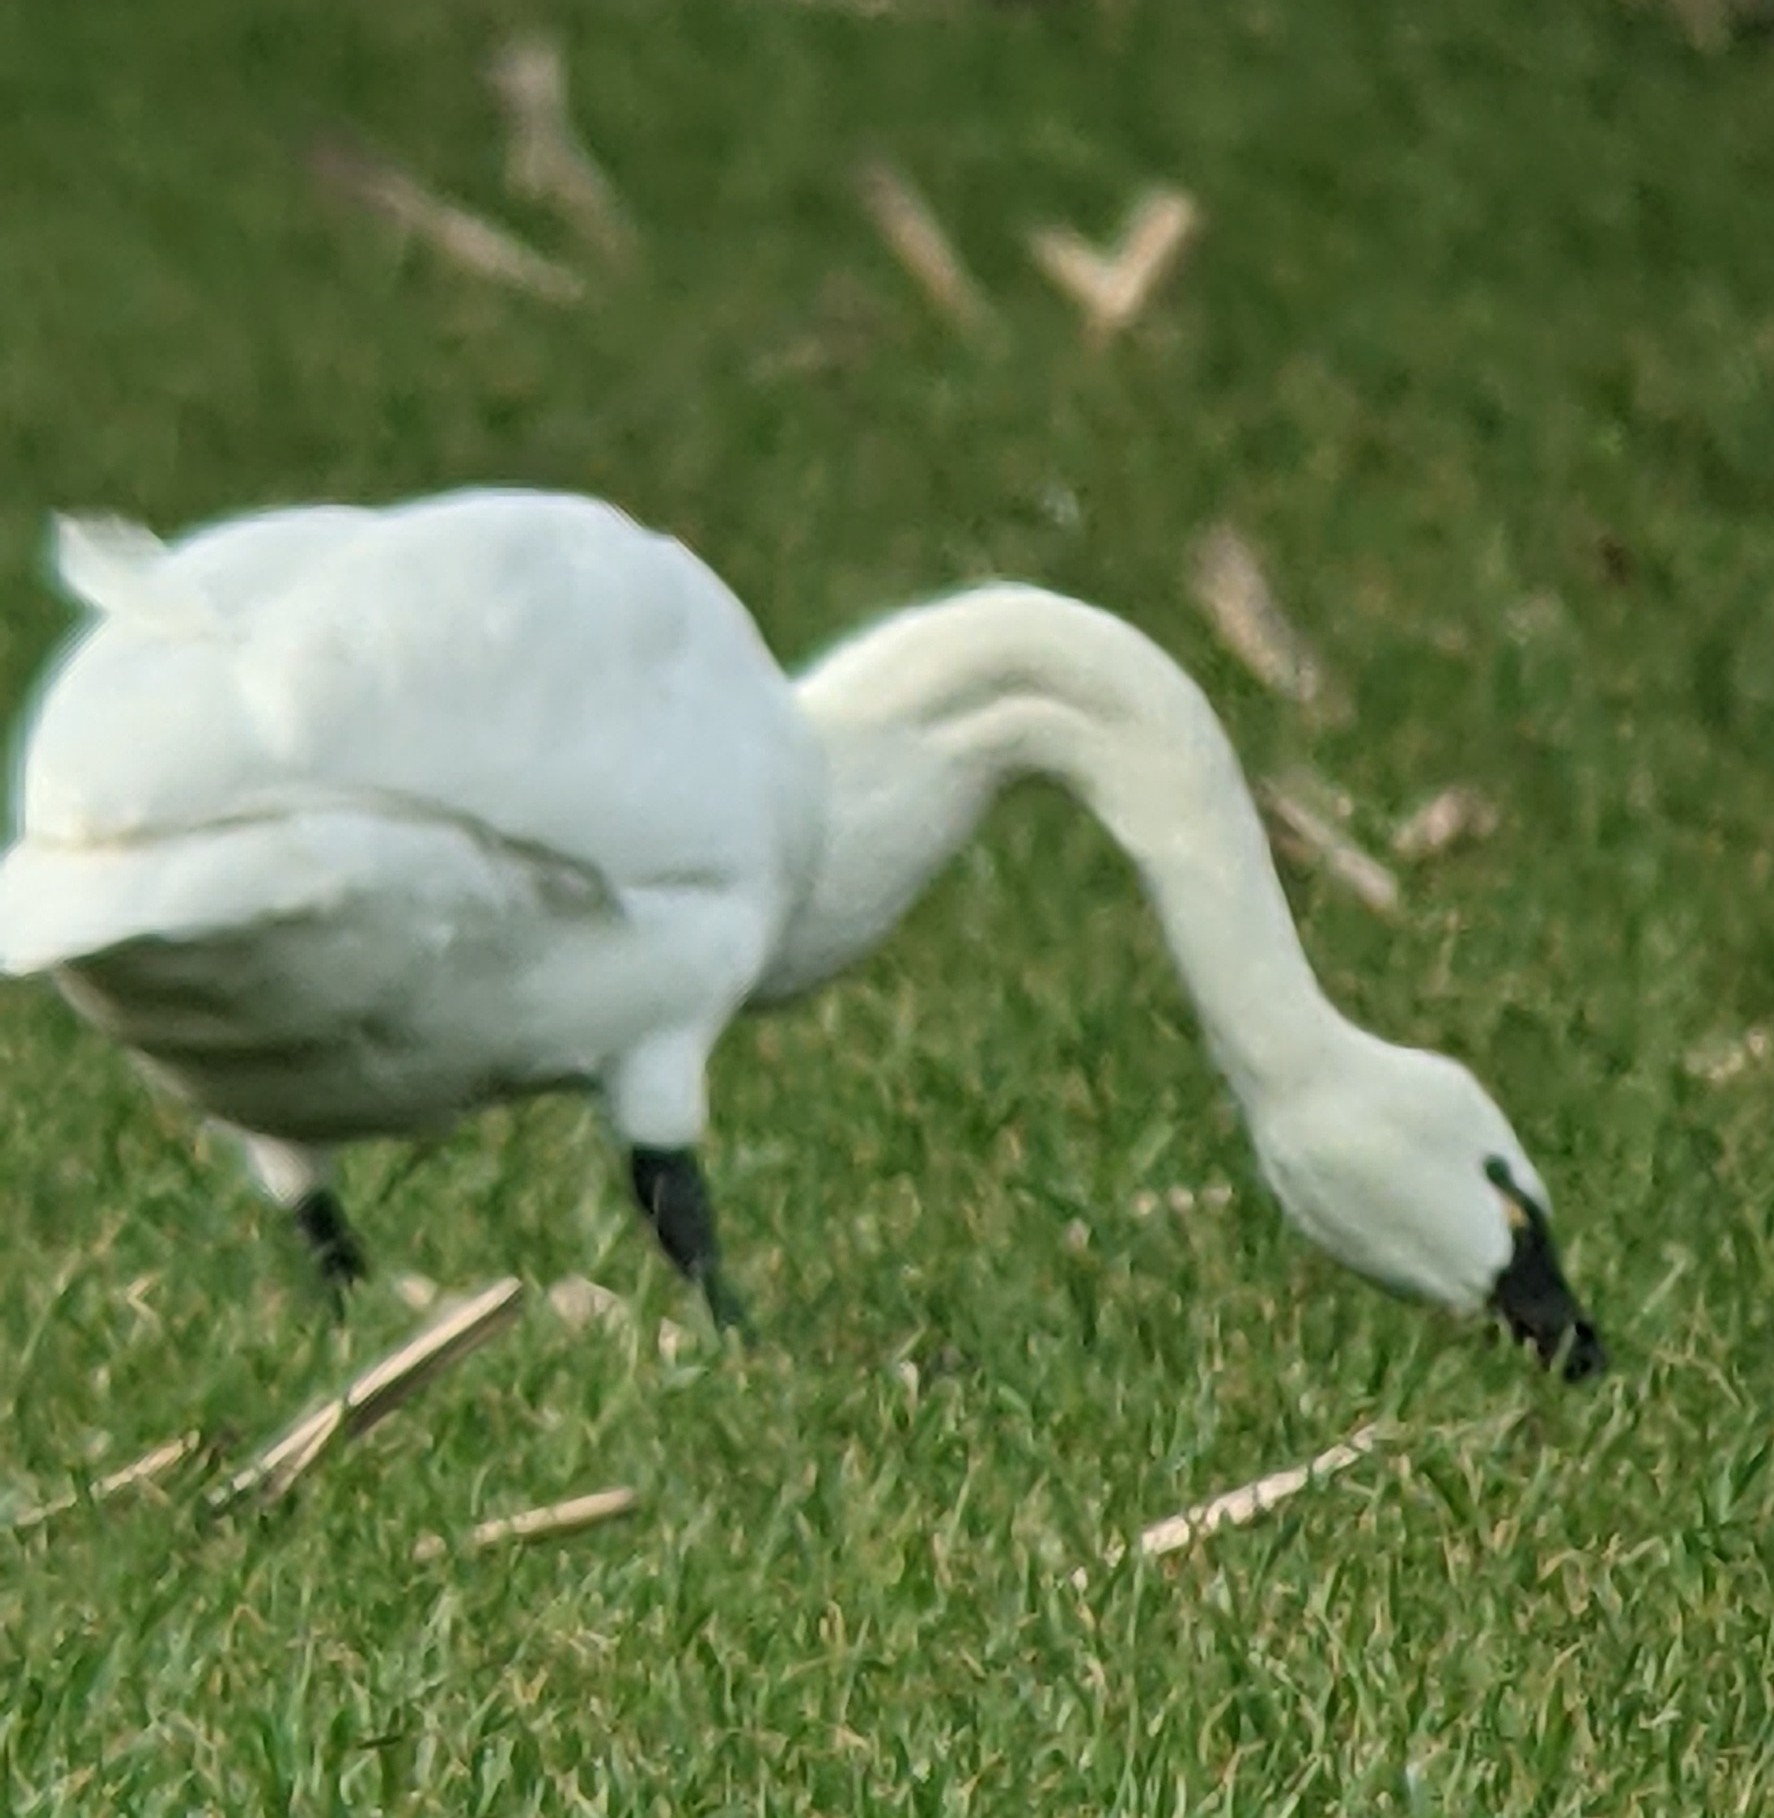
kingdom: Animalia
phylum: Chordata
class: Aves
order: Anseriformes
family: Anatidae
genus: Cygnus
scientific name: Cygnus columbianus
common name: Tundra swan
